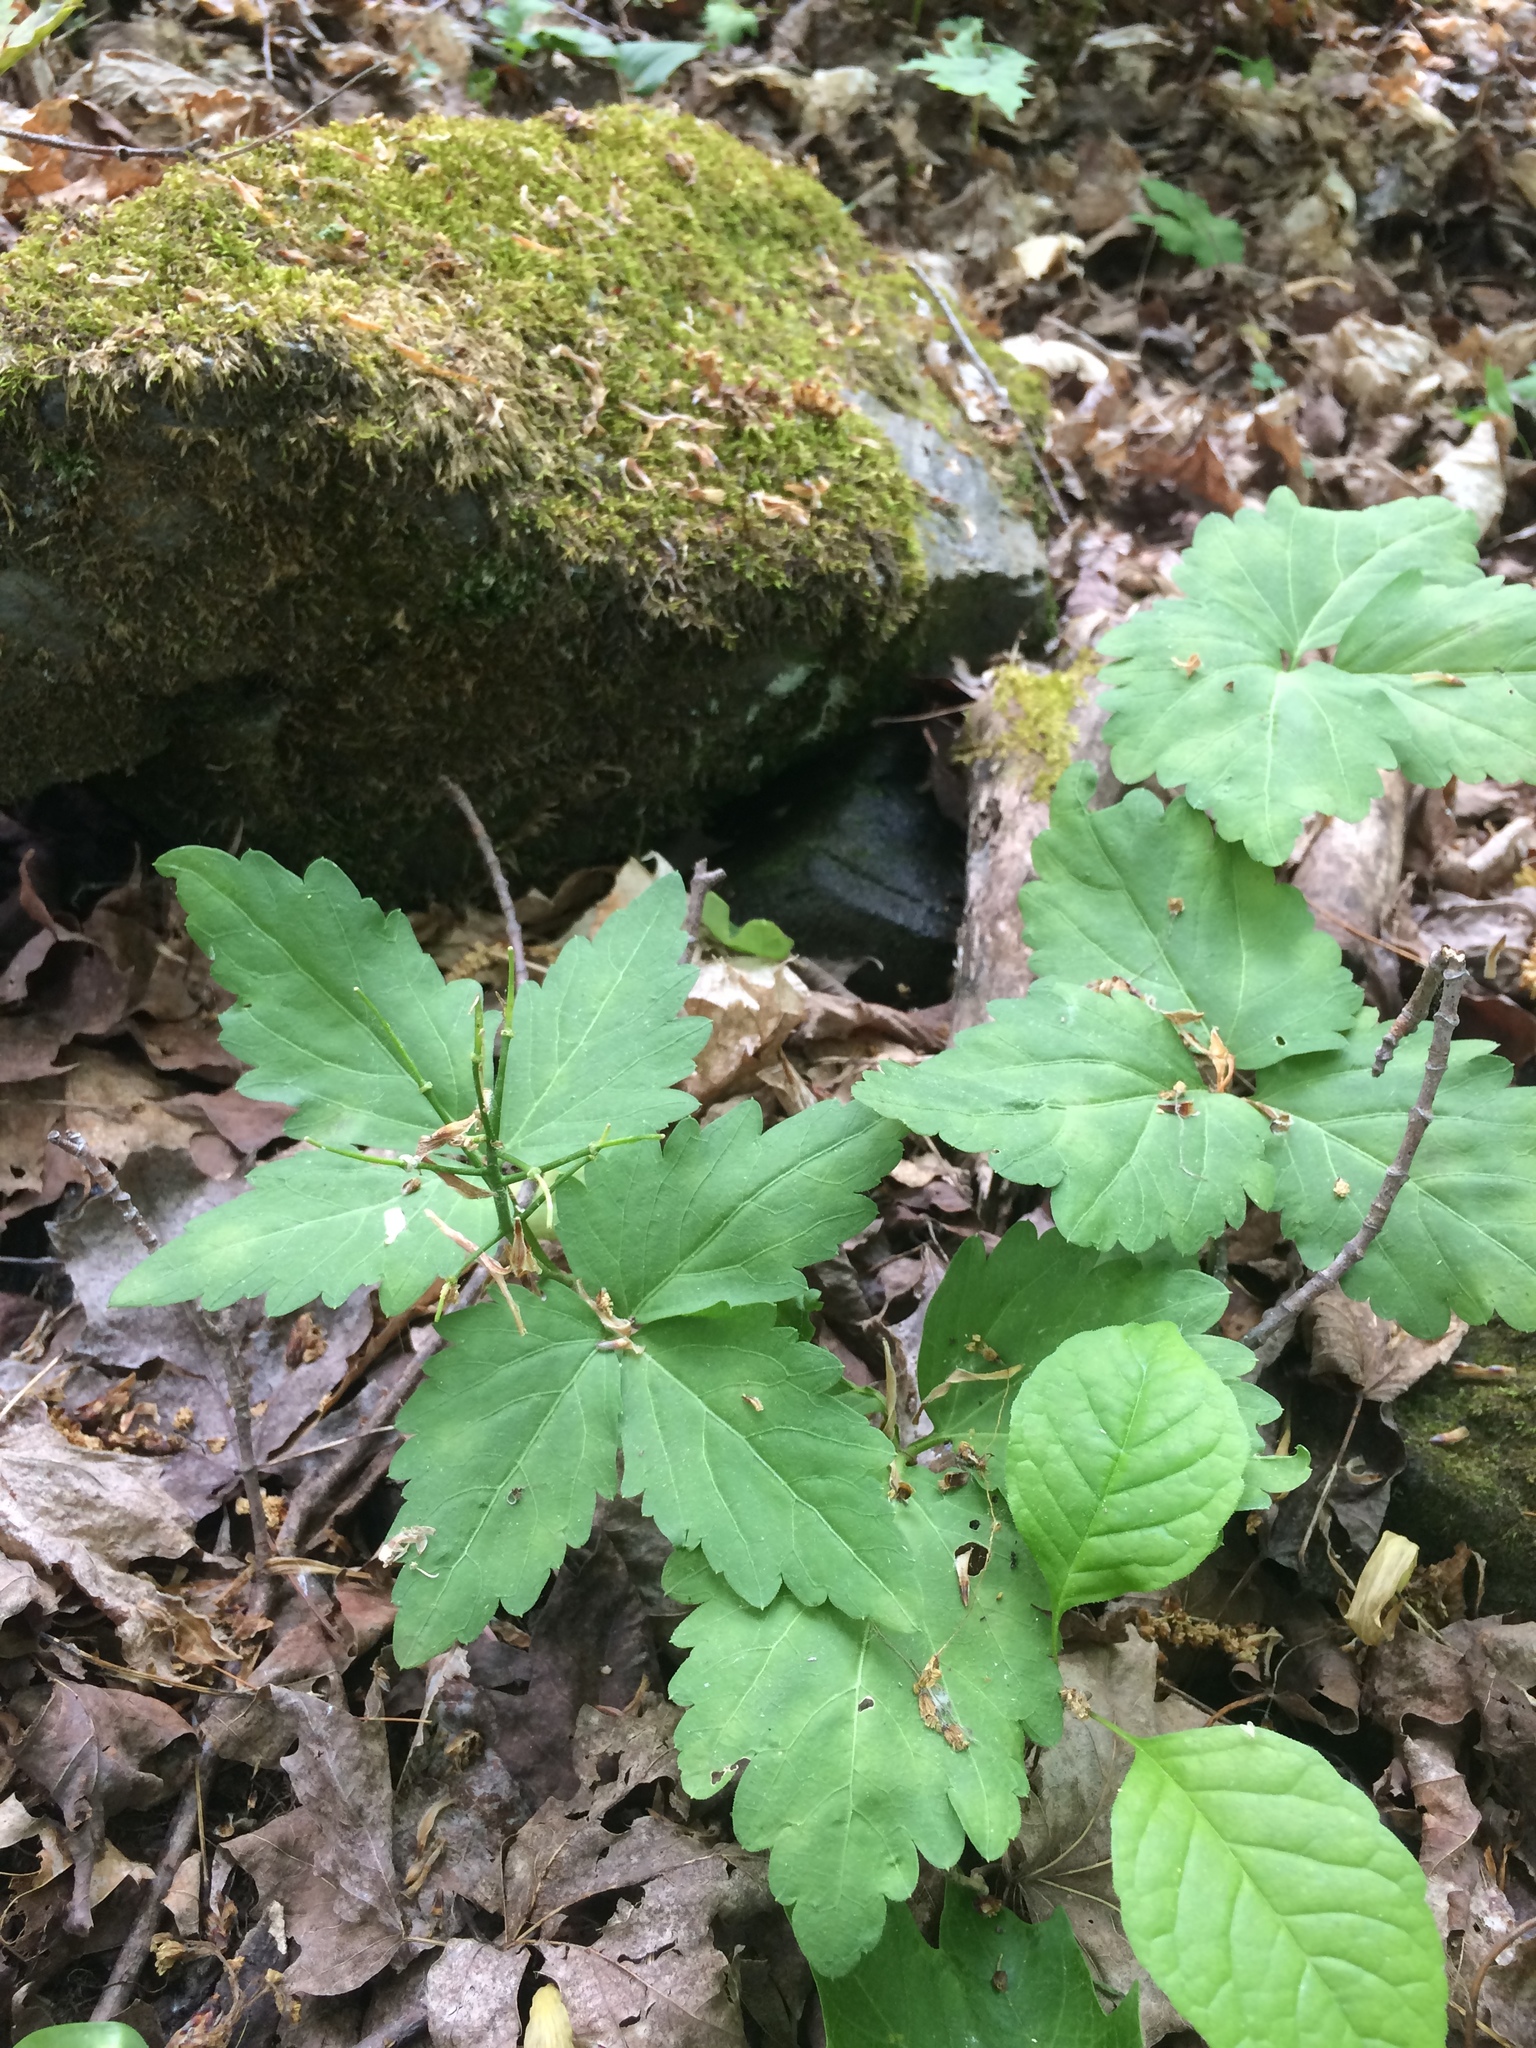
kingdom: Plantae
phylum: Tracheophyta
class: Magnoliopsida
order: Brassicales
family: Brassicaceae
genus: Cardamine
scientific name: Cardamine diphylla
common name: Broad-leaved toothwort
